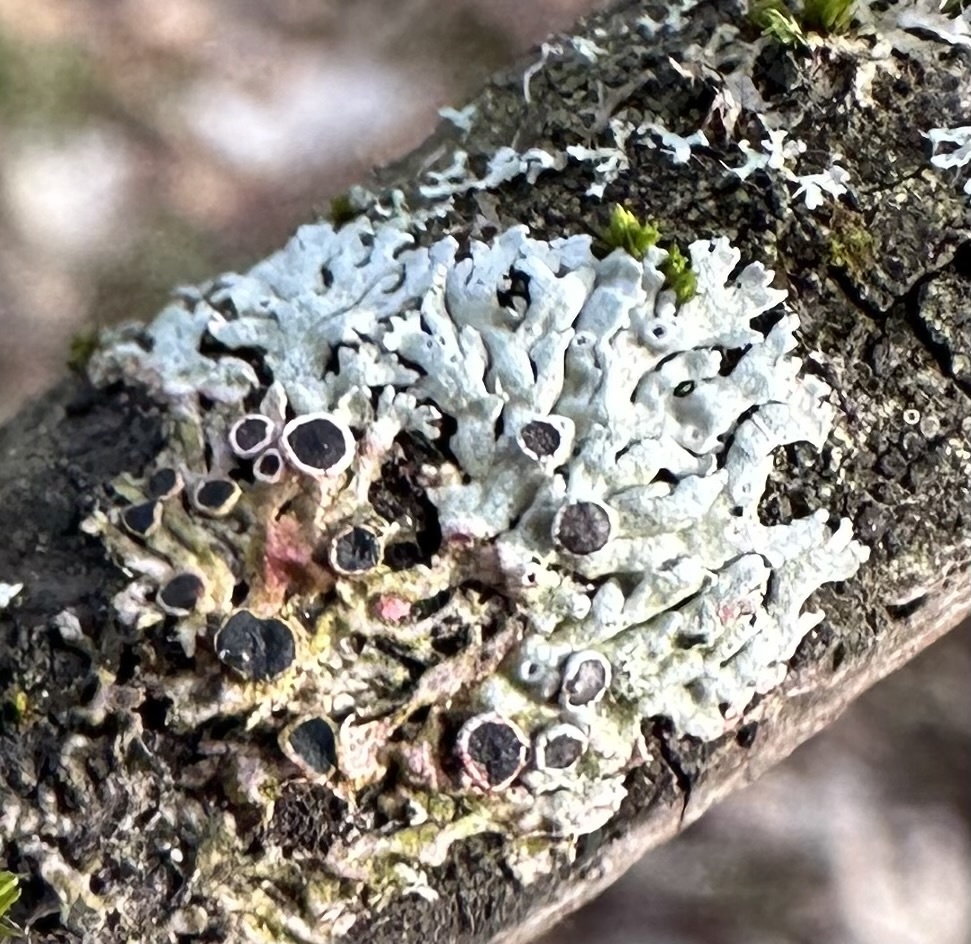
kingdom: Fungi
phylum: Ascomycota
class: Sordariomycetes
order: Hypocreales
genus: Illosporiopsis
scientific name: Illosporiopsis christiansenii
